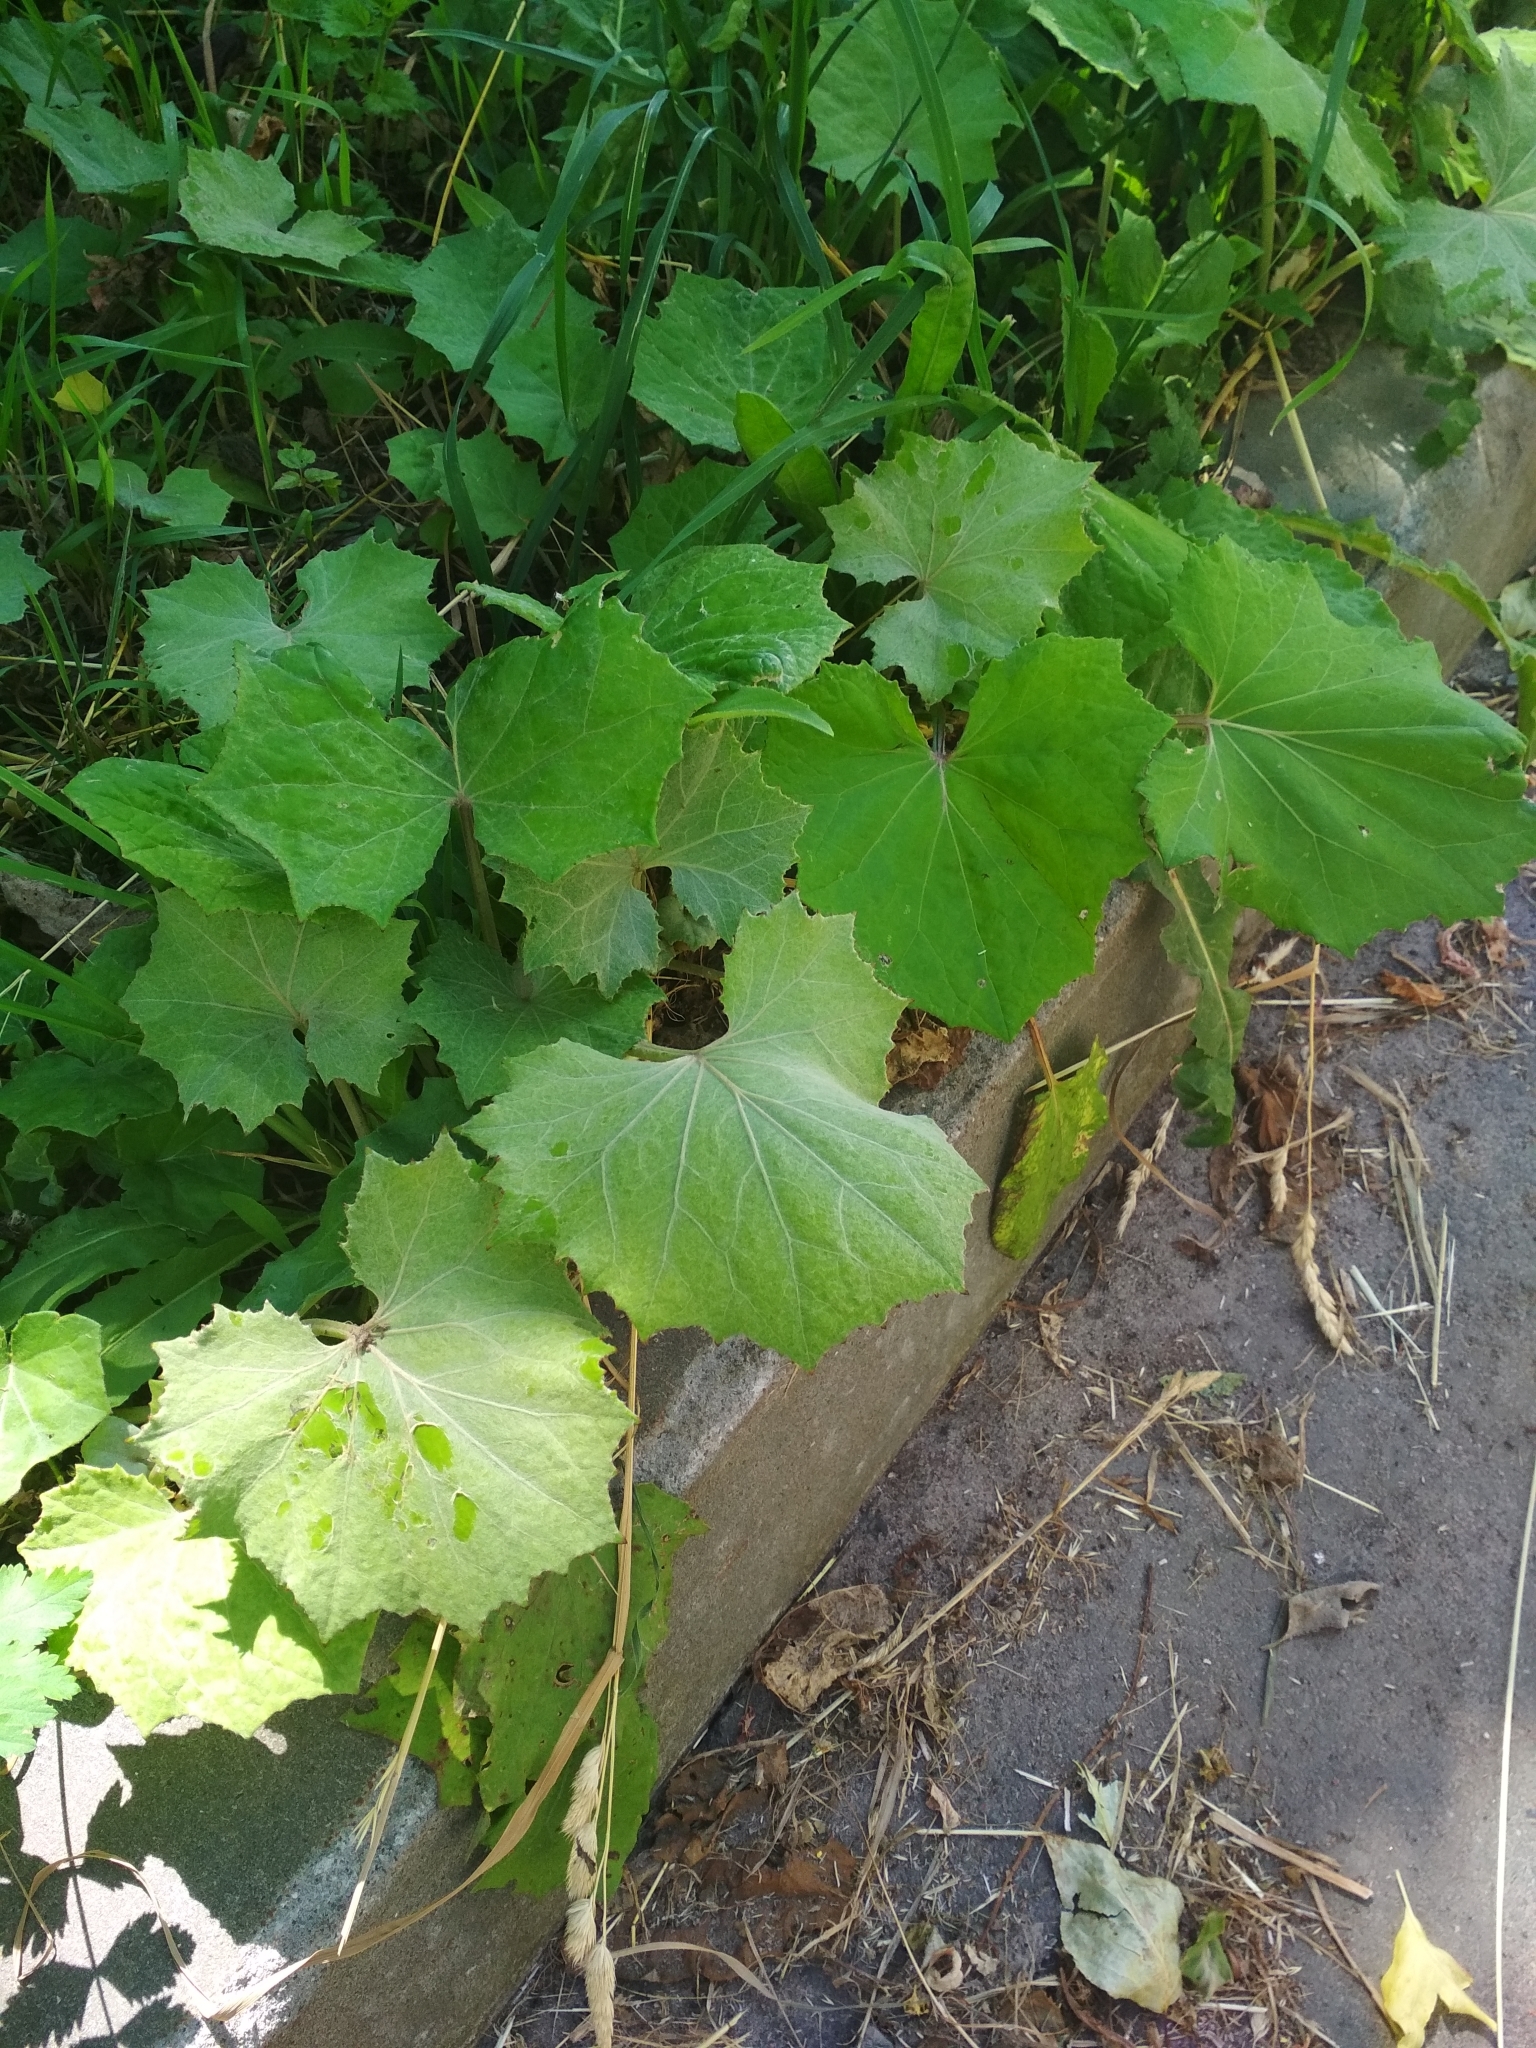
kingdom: Plantae
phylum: Tracheophyta
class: Magnoliopsida
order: Asterales
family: Asteraceae
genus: Tussilago
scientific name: Tussilago farfara
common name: Coltsfoot
